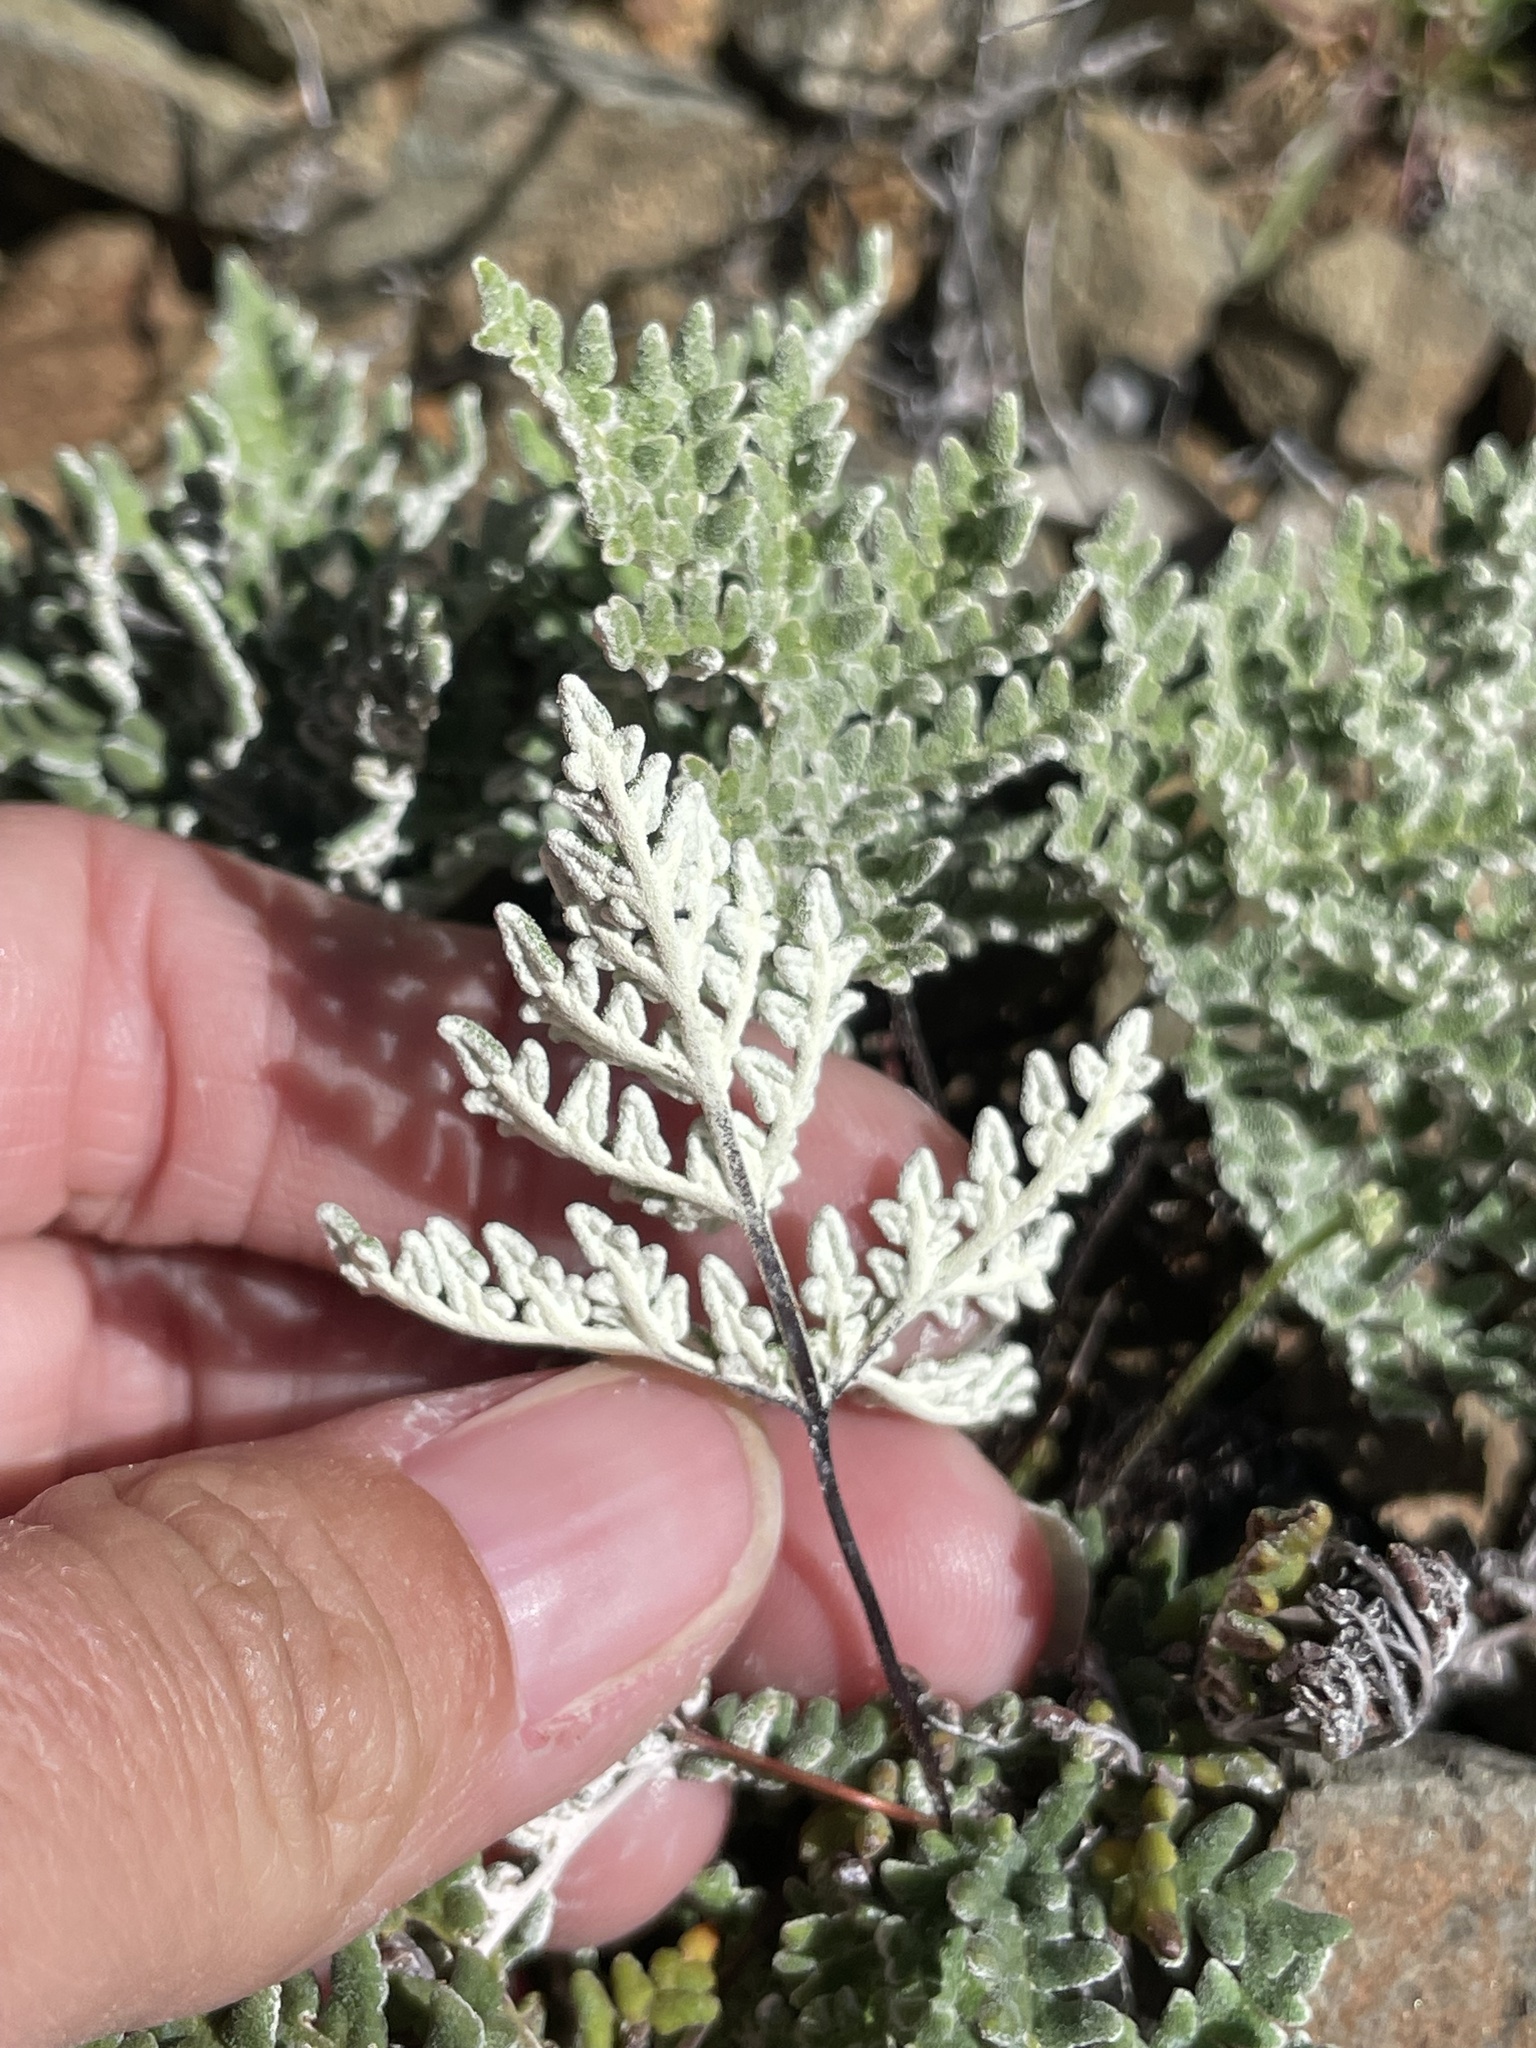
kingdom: Plantae
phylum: Tracheophyta
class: Polypodiopsida
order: Polypodiales
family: Pteridaceae
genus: Notholaena
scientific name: Notholaena californica
